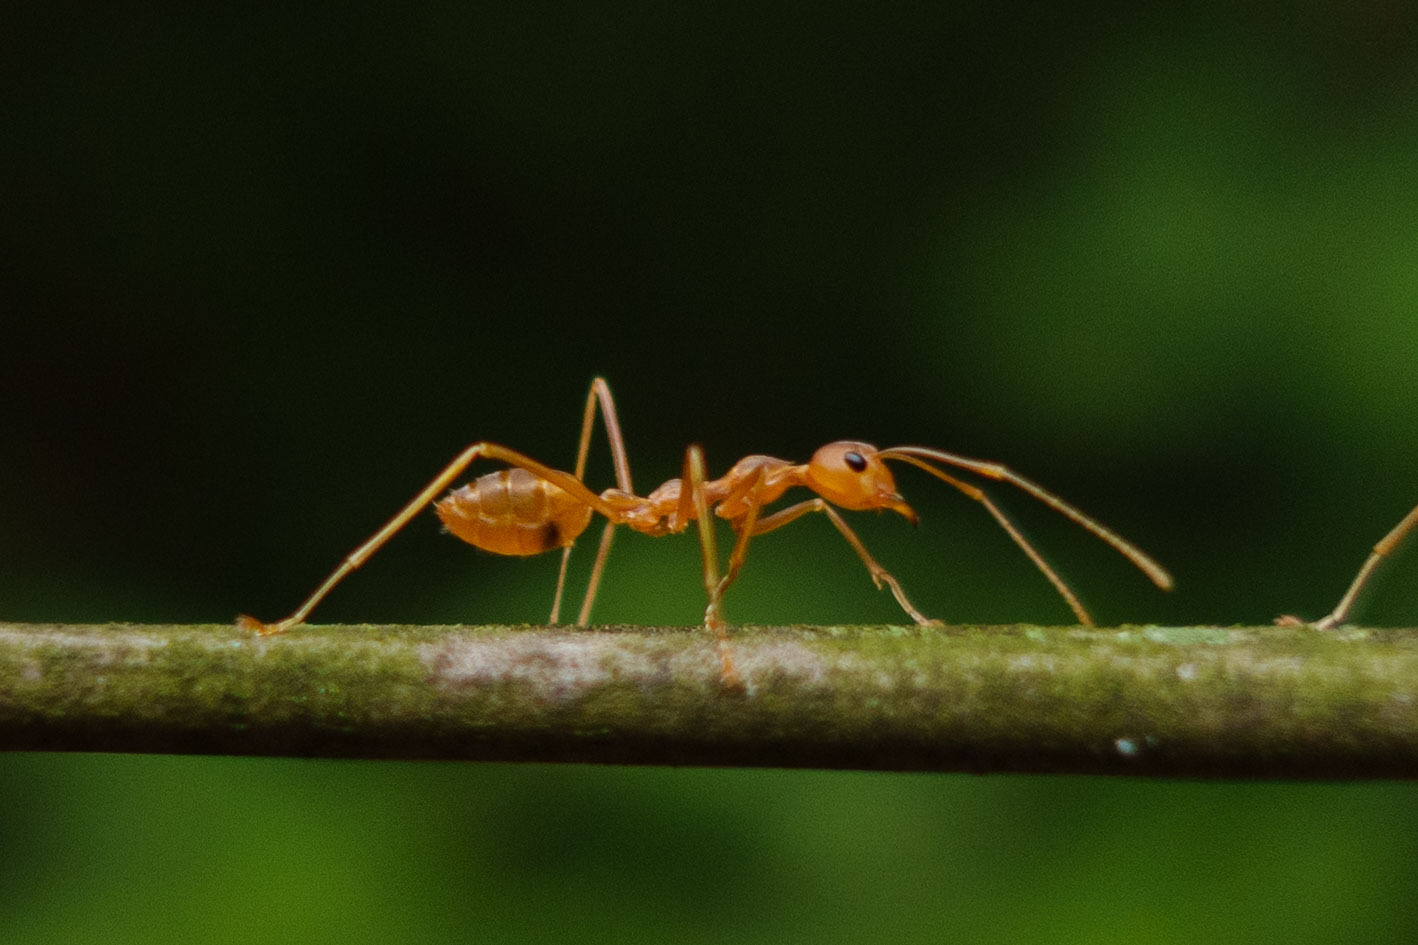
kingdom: Animalia
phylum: Arthropoda
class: Insecta
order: Hymenoptera
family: Formicidae
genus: Oecophylla
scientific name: Oecophylla smaragdina
